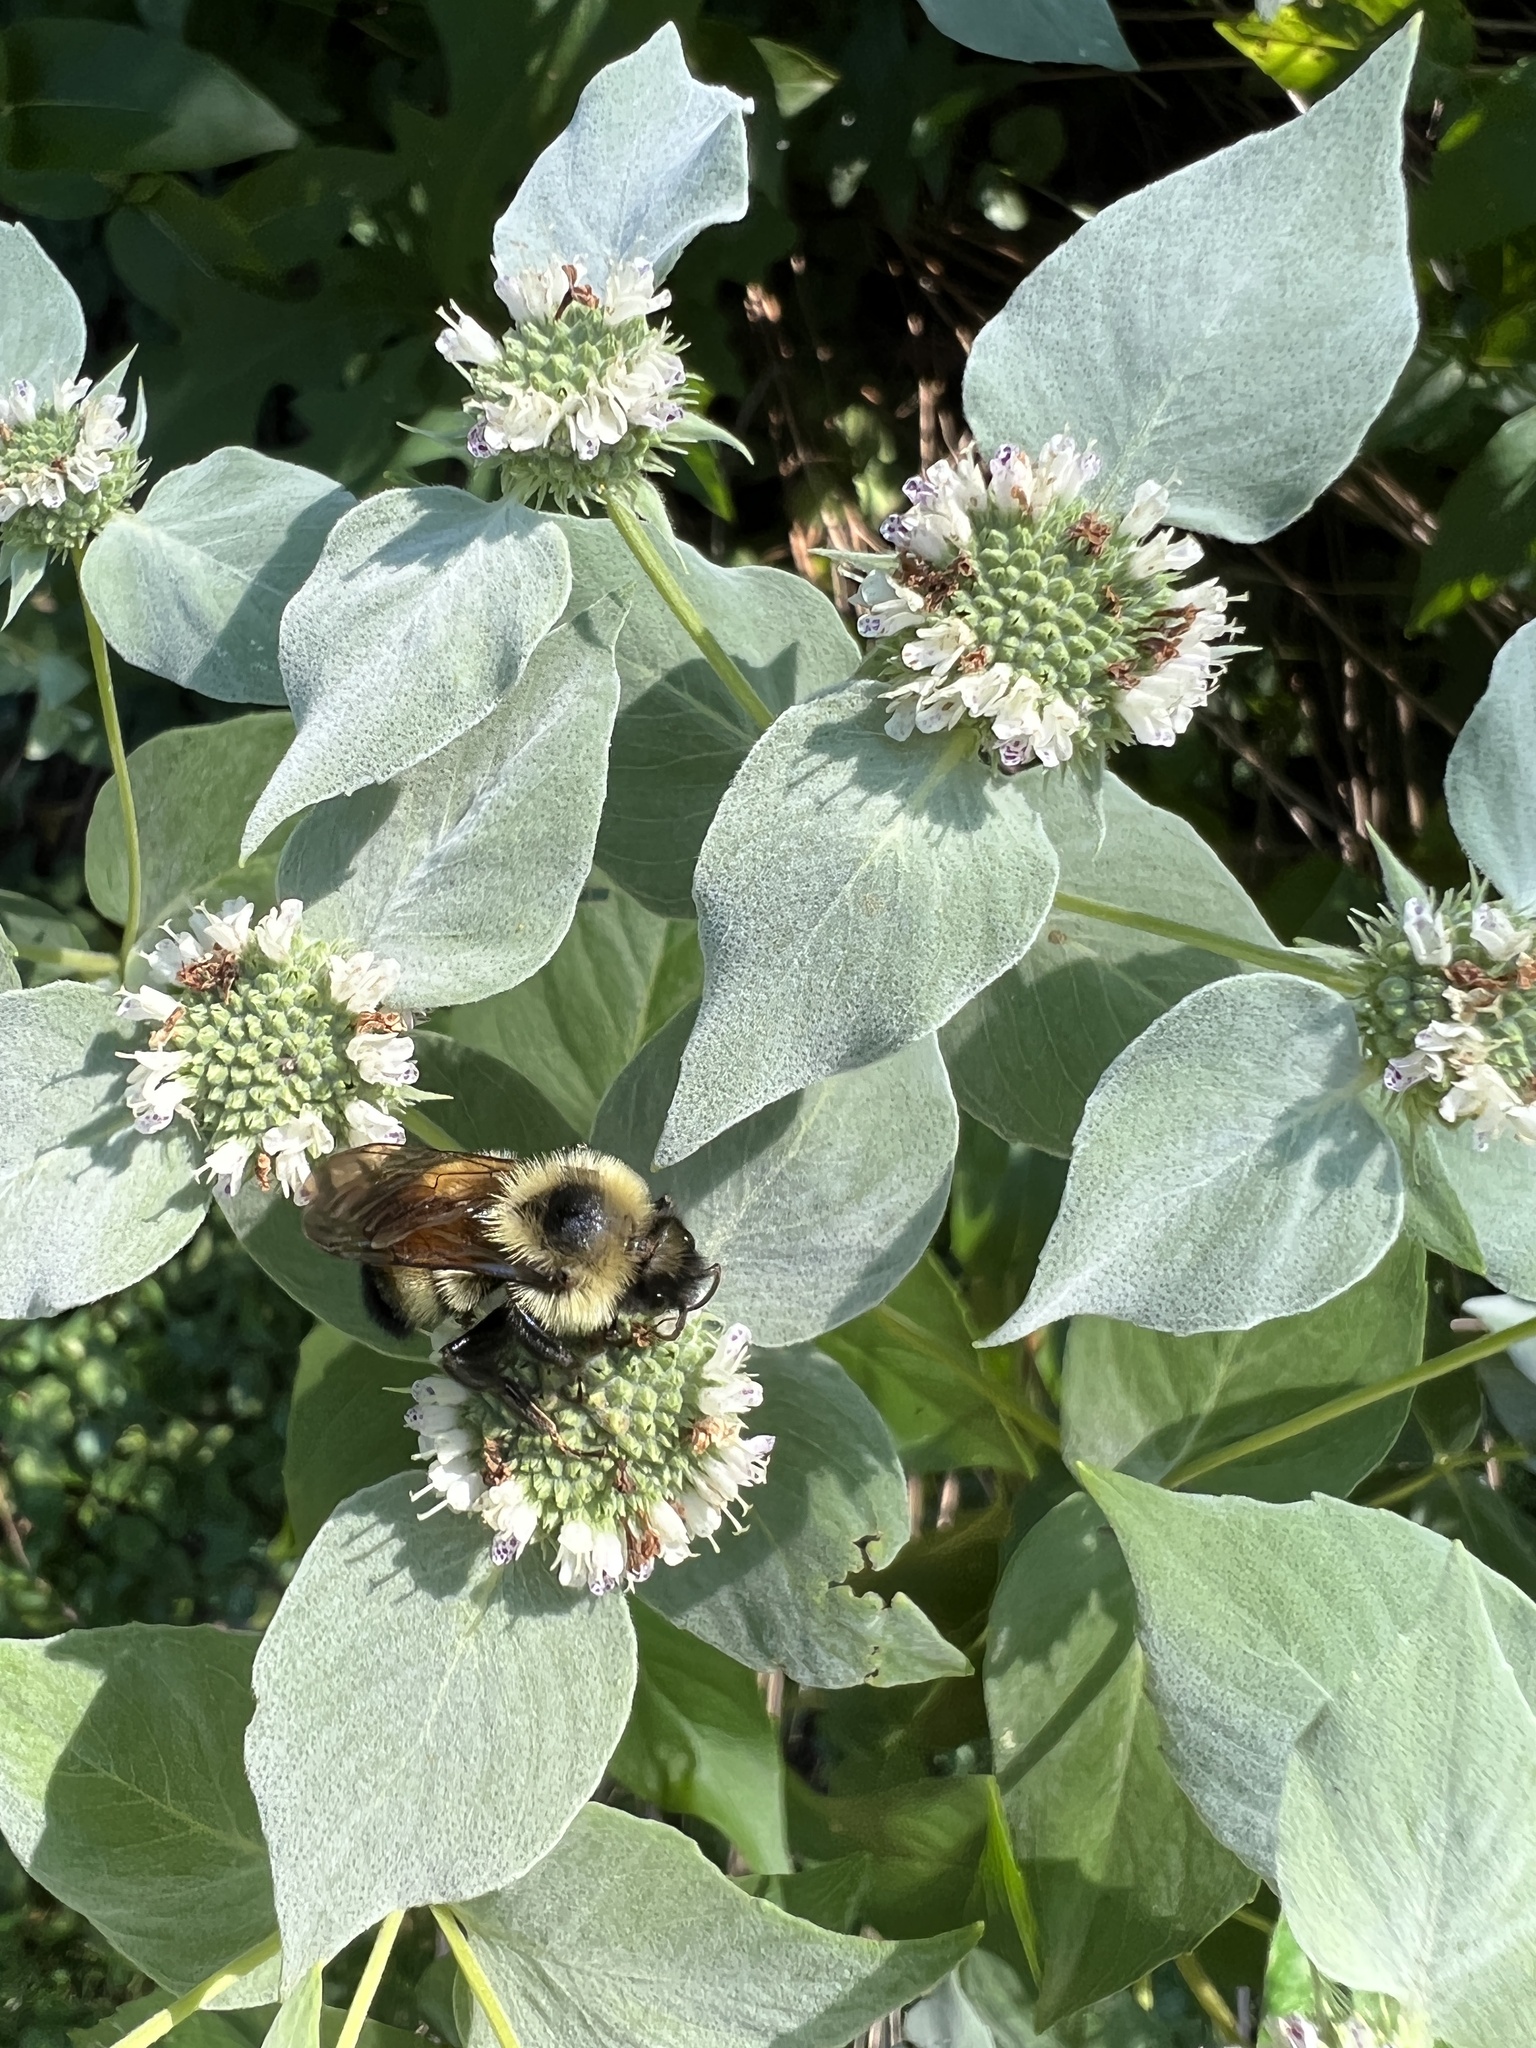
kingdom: Animalia
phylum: Arthropoda
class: Insecta
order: Hymenoptera
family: Apidae
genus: Bombus
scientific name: Bombus citrinus
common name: Lemon cuckoo bumble bee
